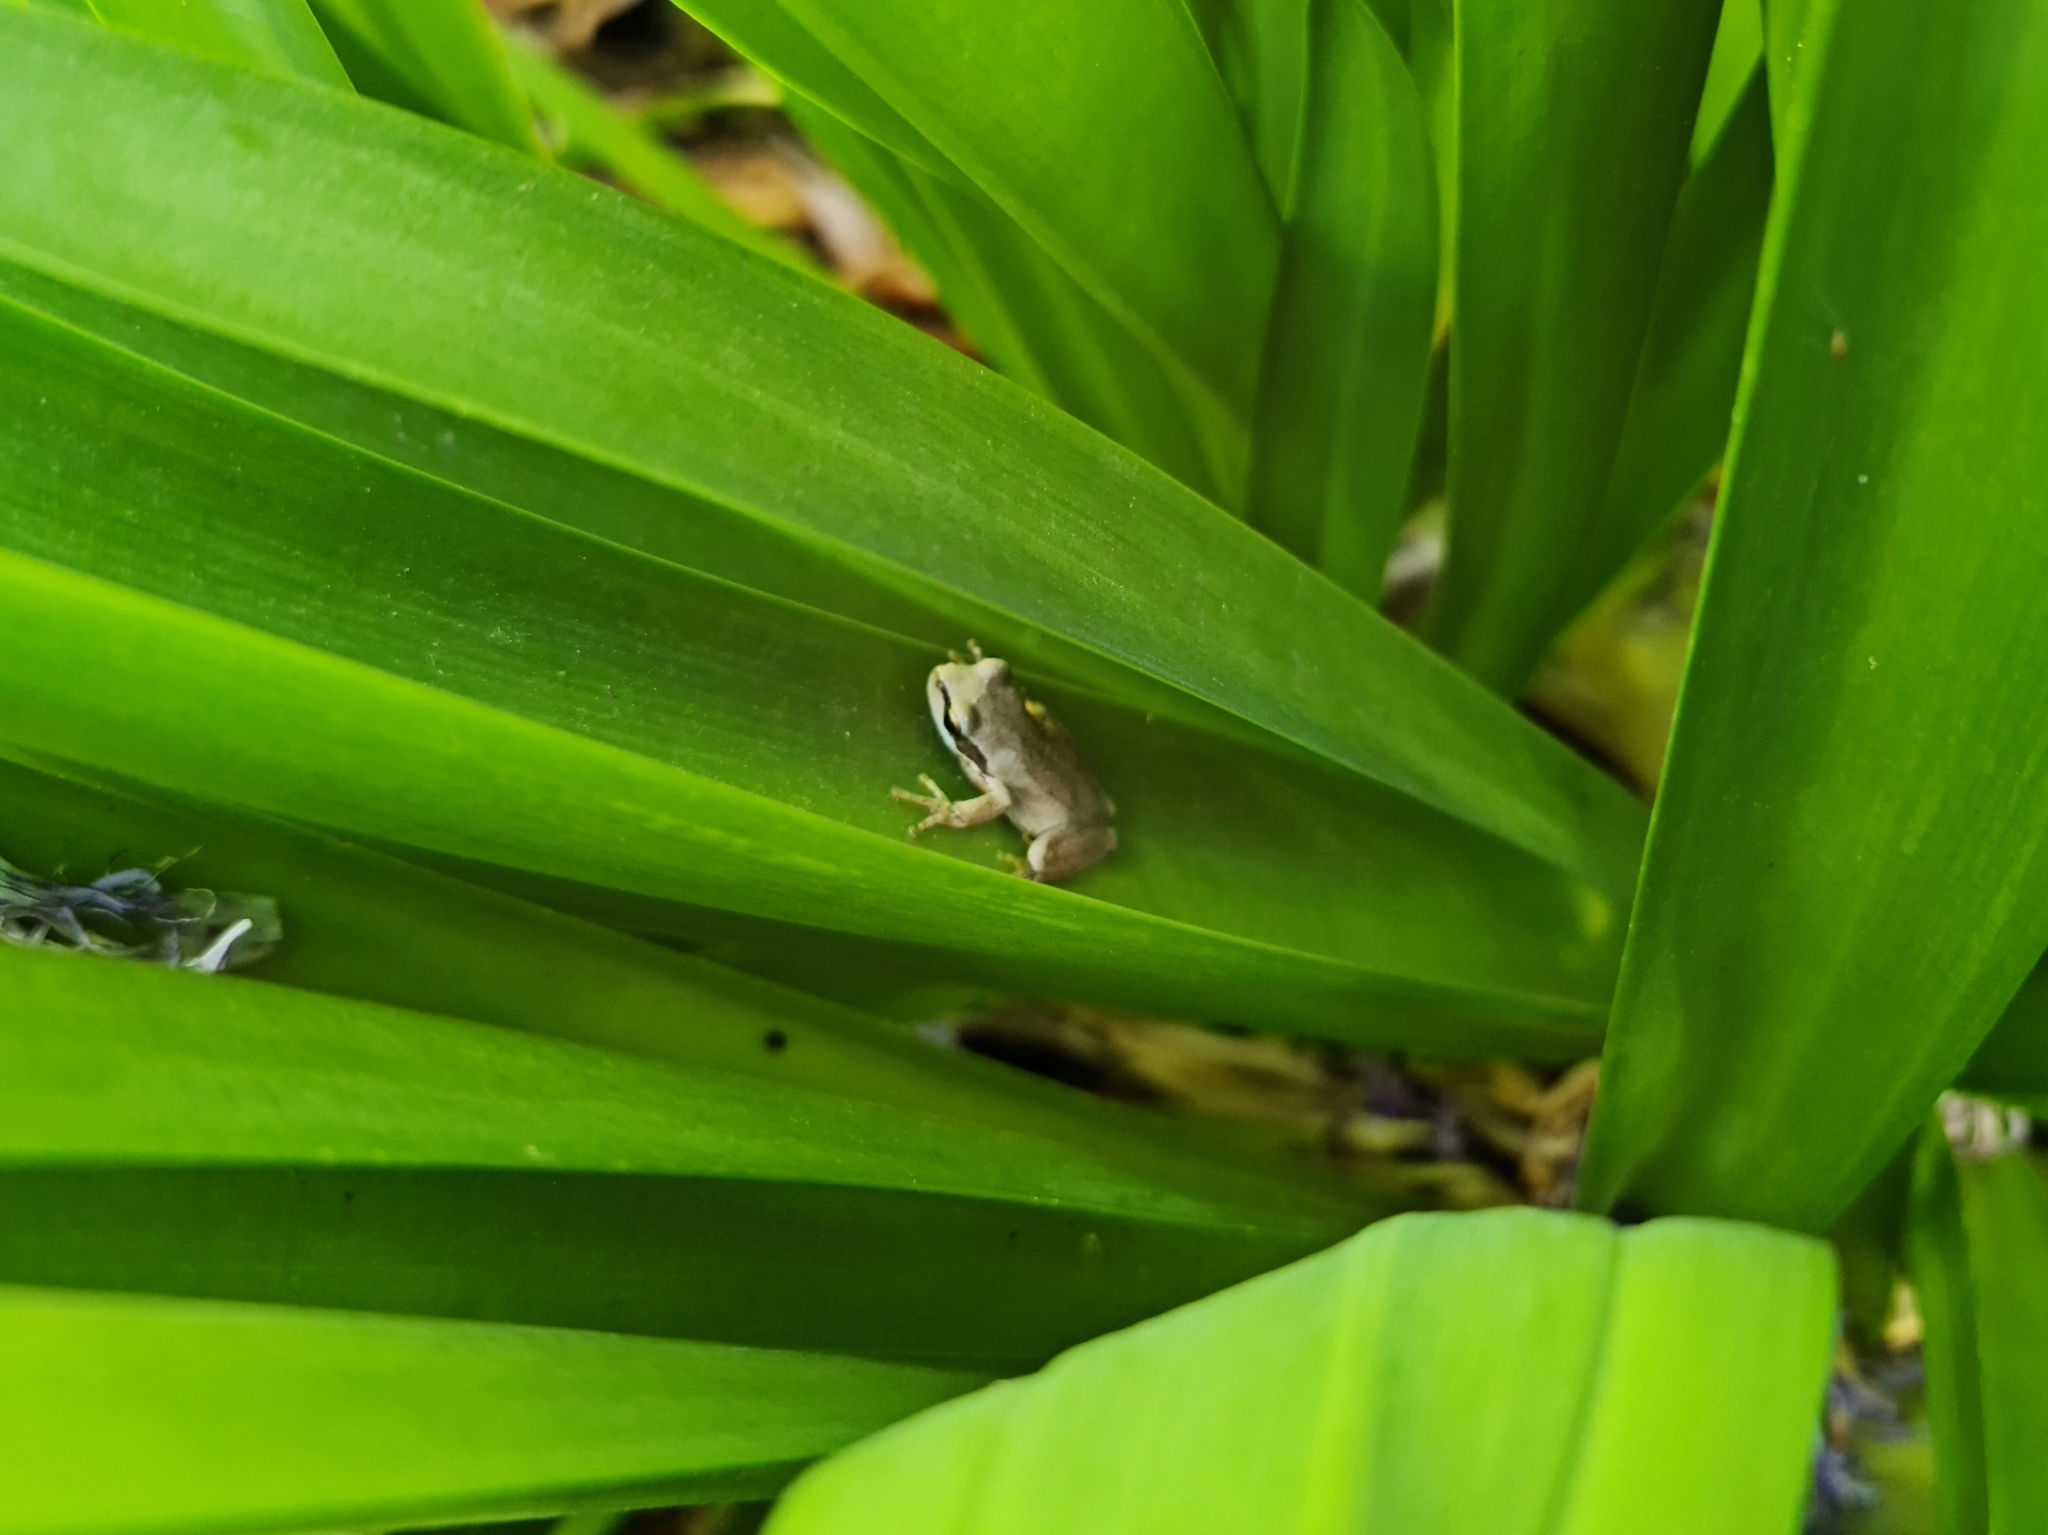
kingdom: Animalia
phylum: Chordata
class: Amphibia
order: Anura
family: Pelodryadidae
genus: Litoria
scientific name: Litoria
